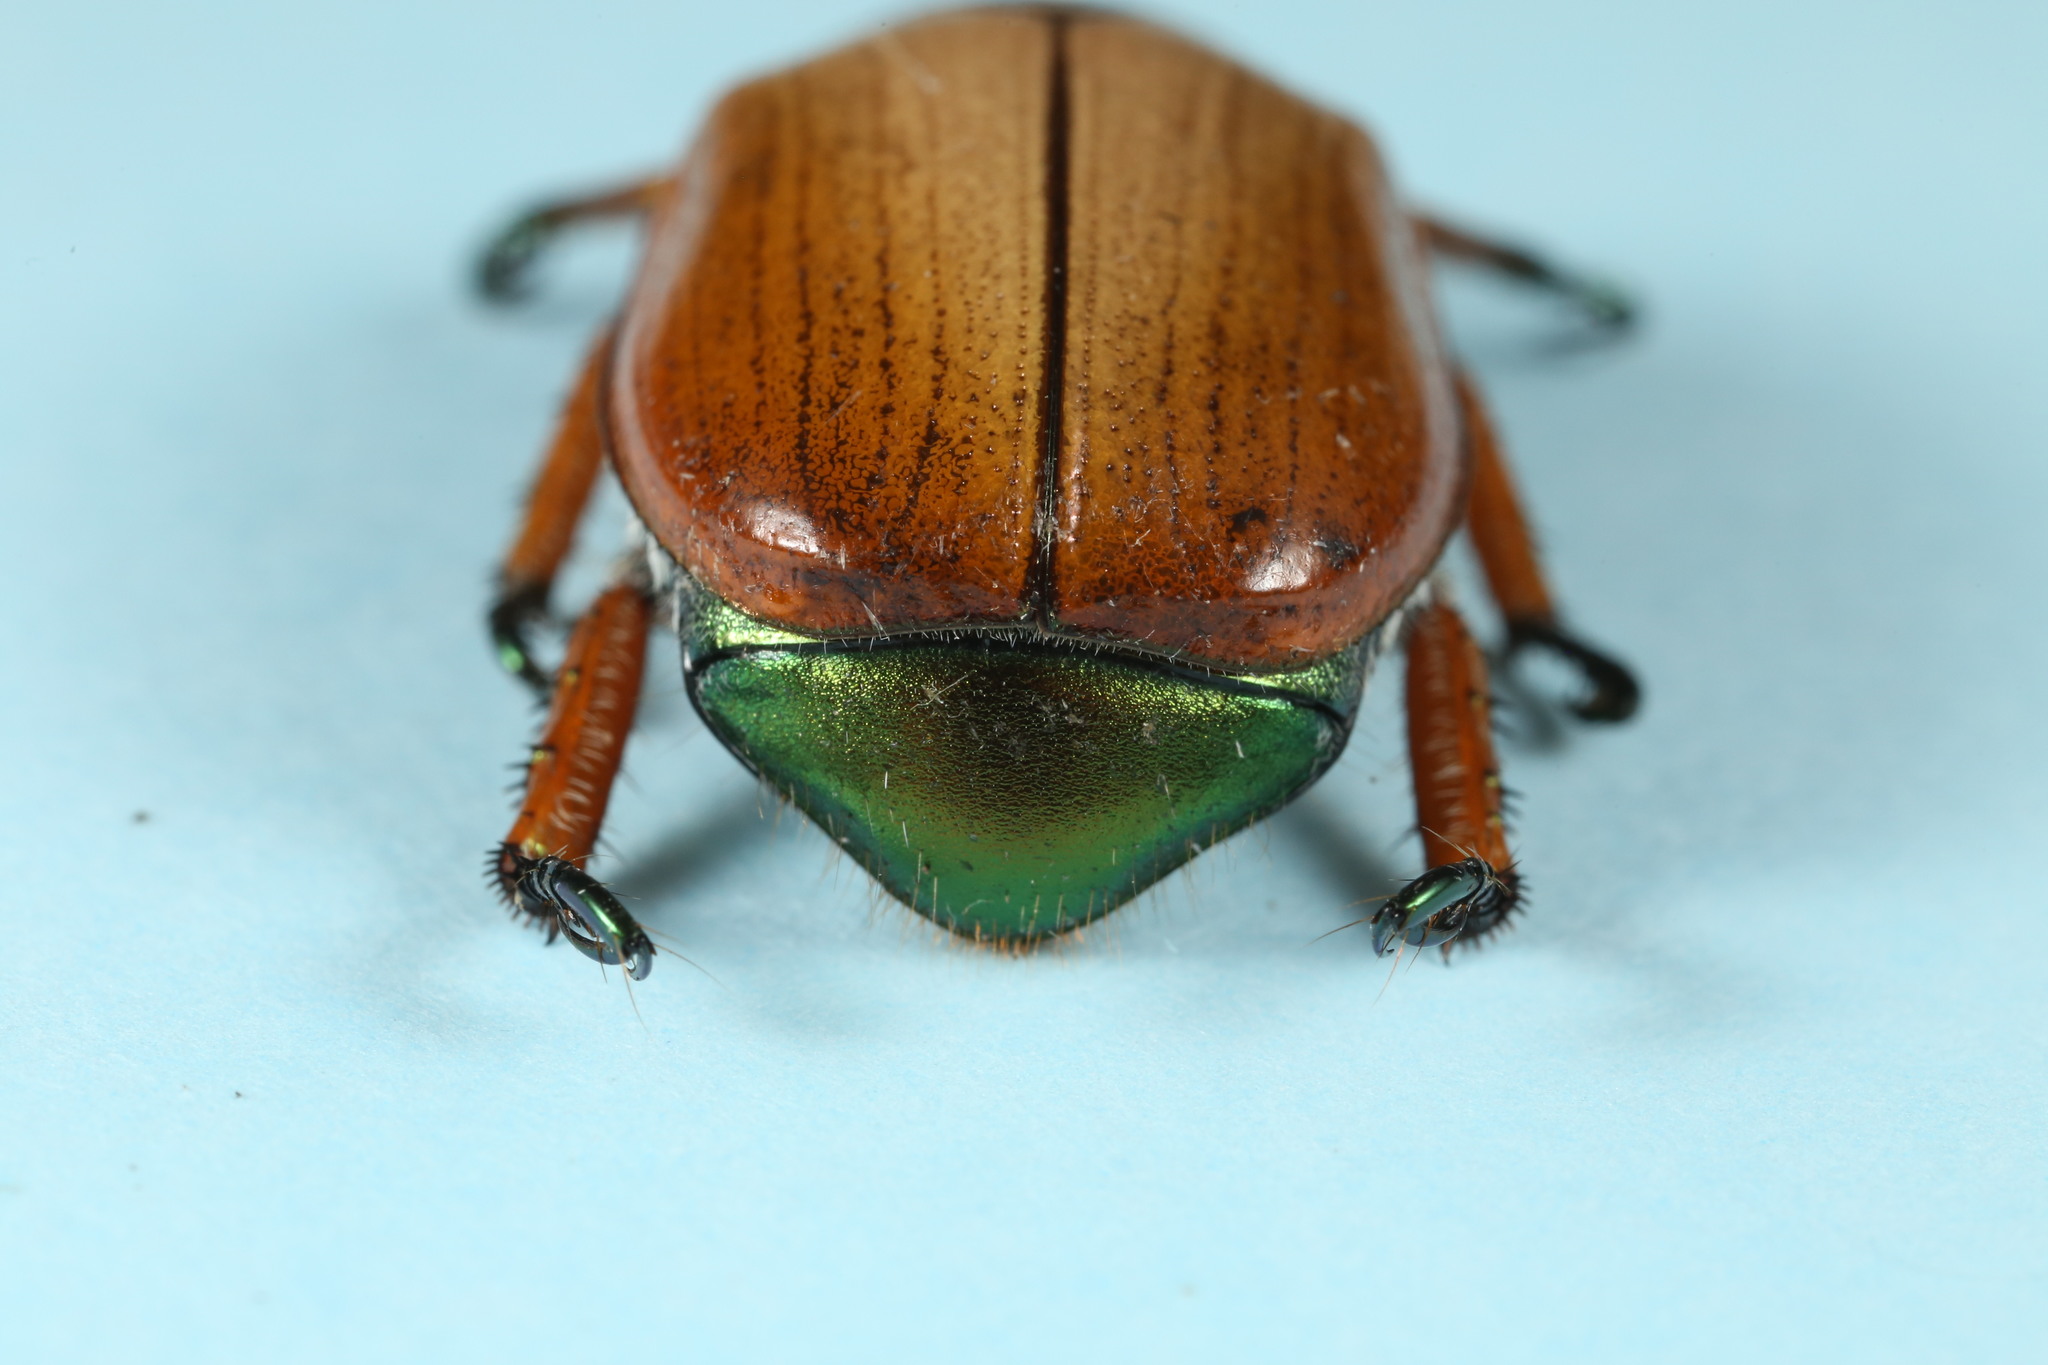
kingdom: Animalia
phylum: Arthropoda
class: Insecta
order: Coleoptera
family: Scarabaeidae
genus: Anoplognathus
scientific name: Anoplognathus brunnipennis
